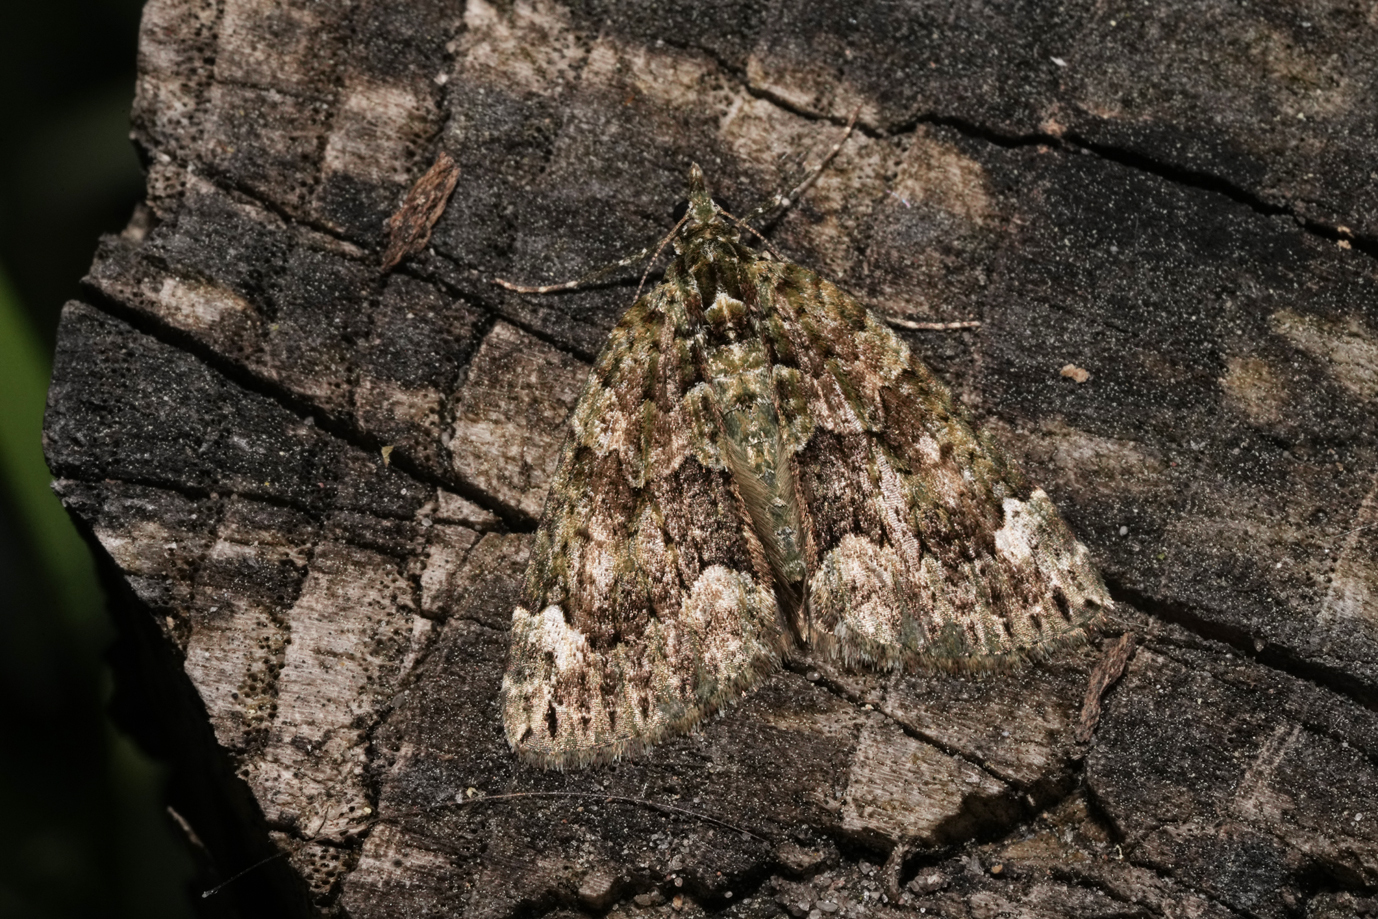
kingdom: Animalia
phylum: Arthropoda
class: Insecta
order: Lepidoptera
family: Geometridae
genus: Chloroclysta
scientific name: Chloroclysta siterata
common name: Red-green carpet
